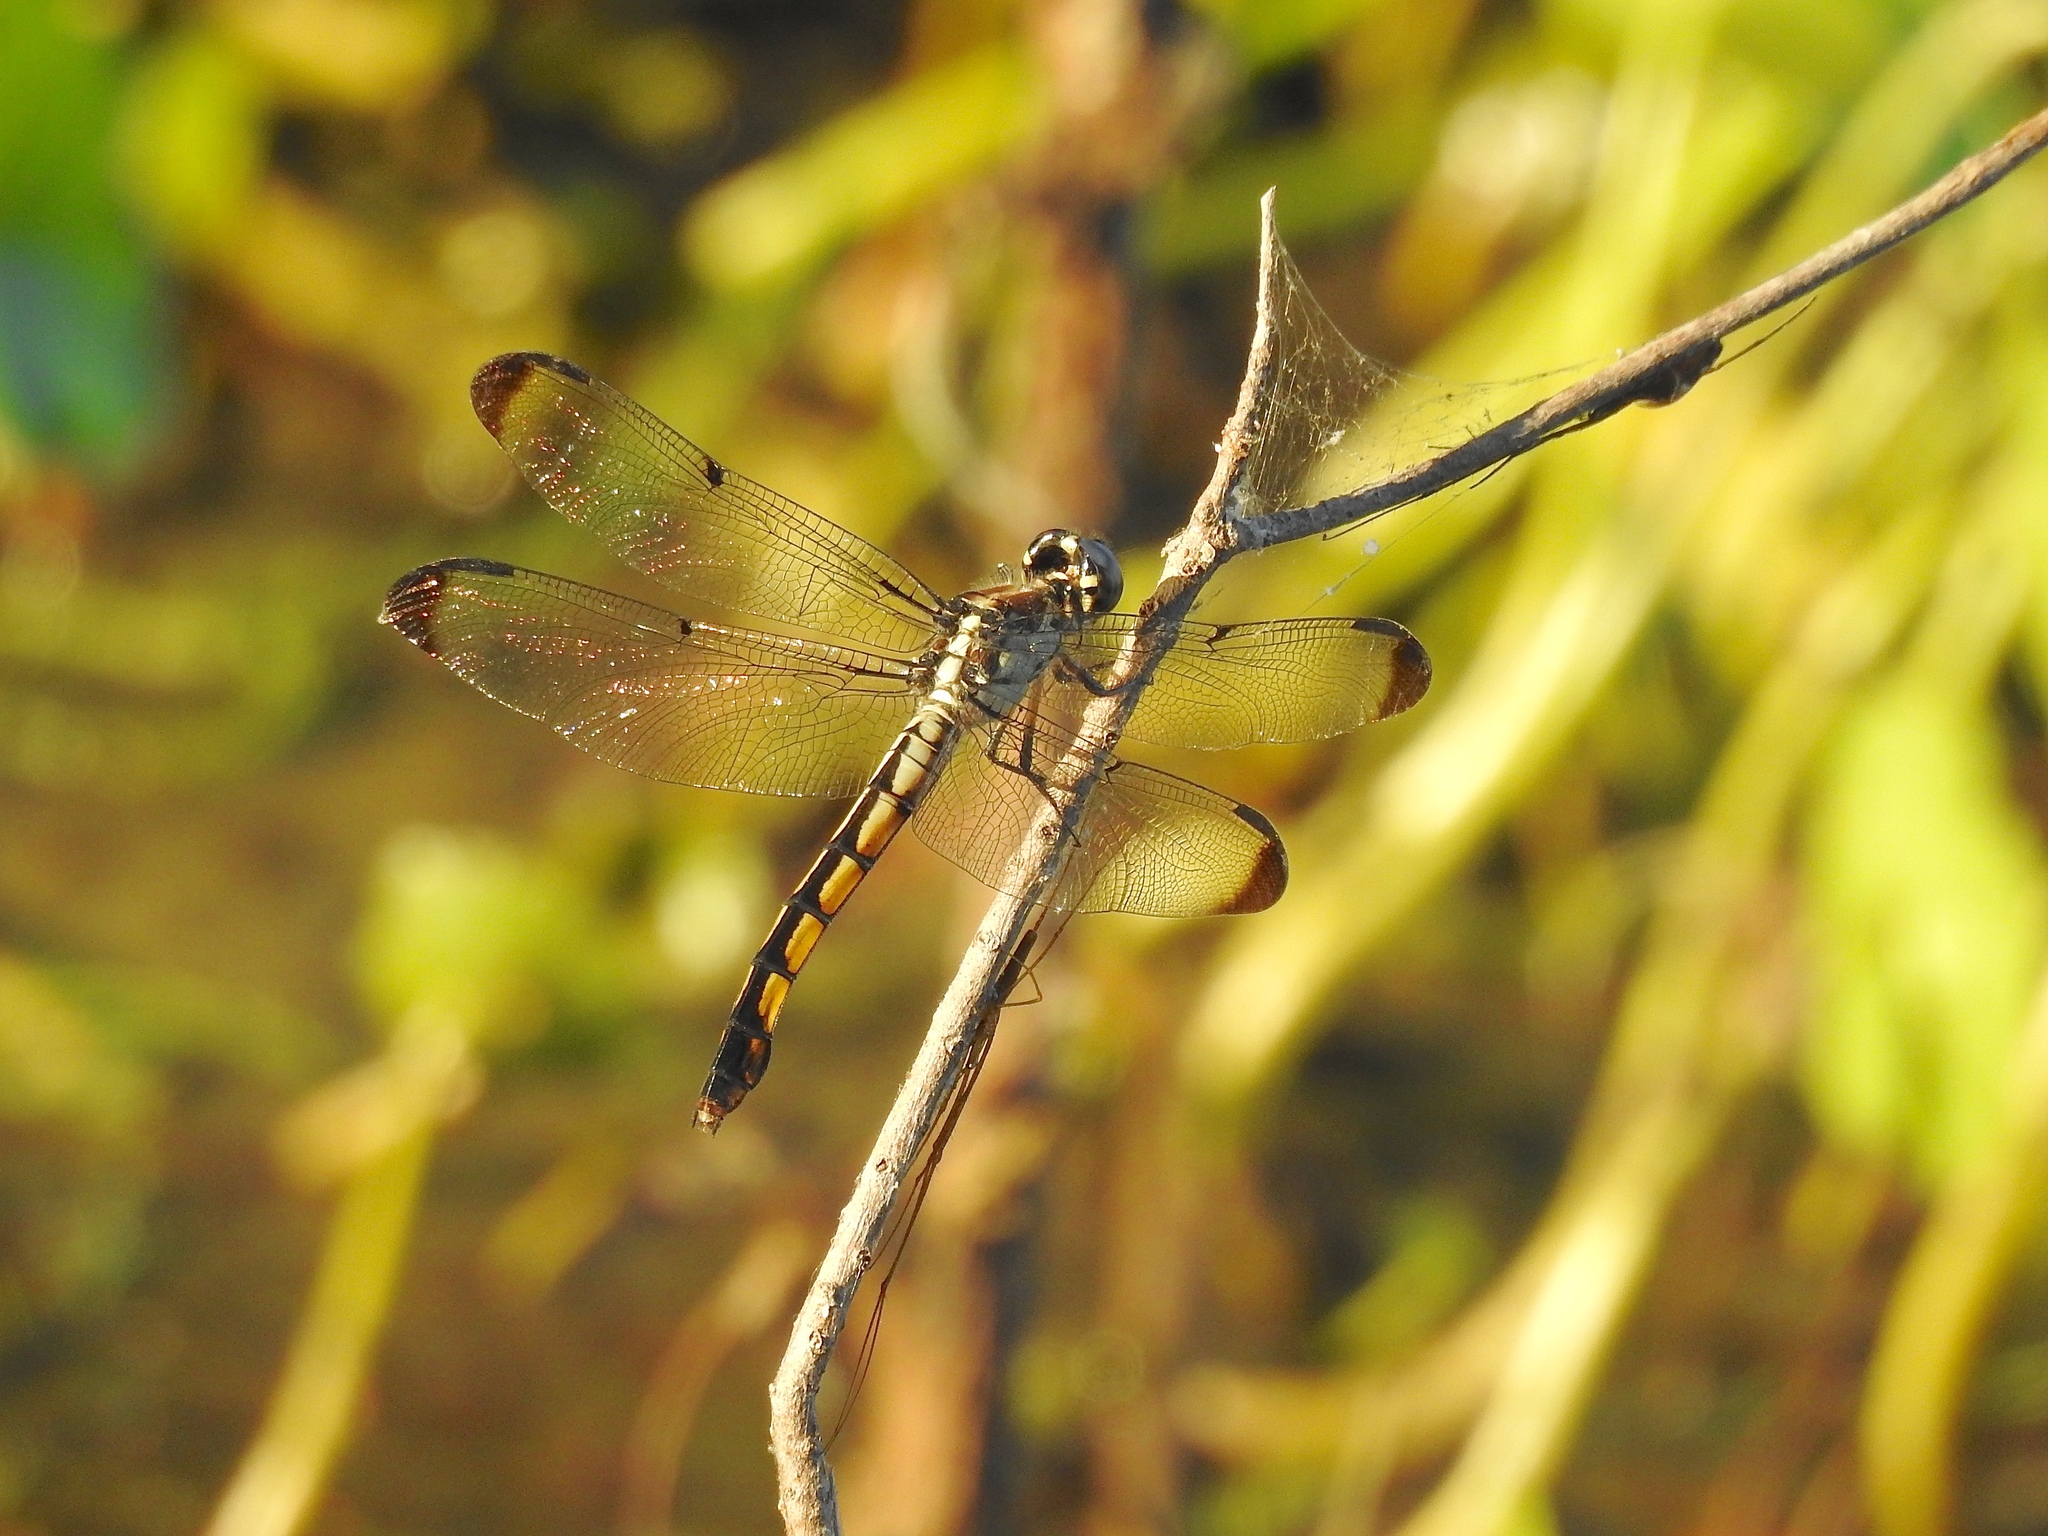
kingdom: Animalia
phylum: Arthropoda
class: Insecta
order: Odonata
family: Libellulidae
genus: Libellula
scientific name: Libellula vibrans
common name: Great blue skimmer
